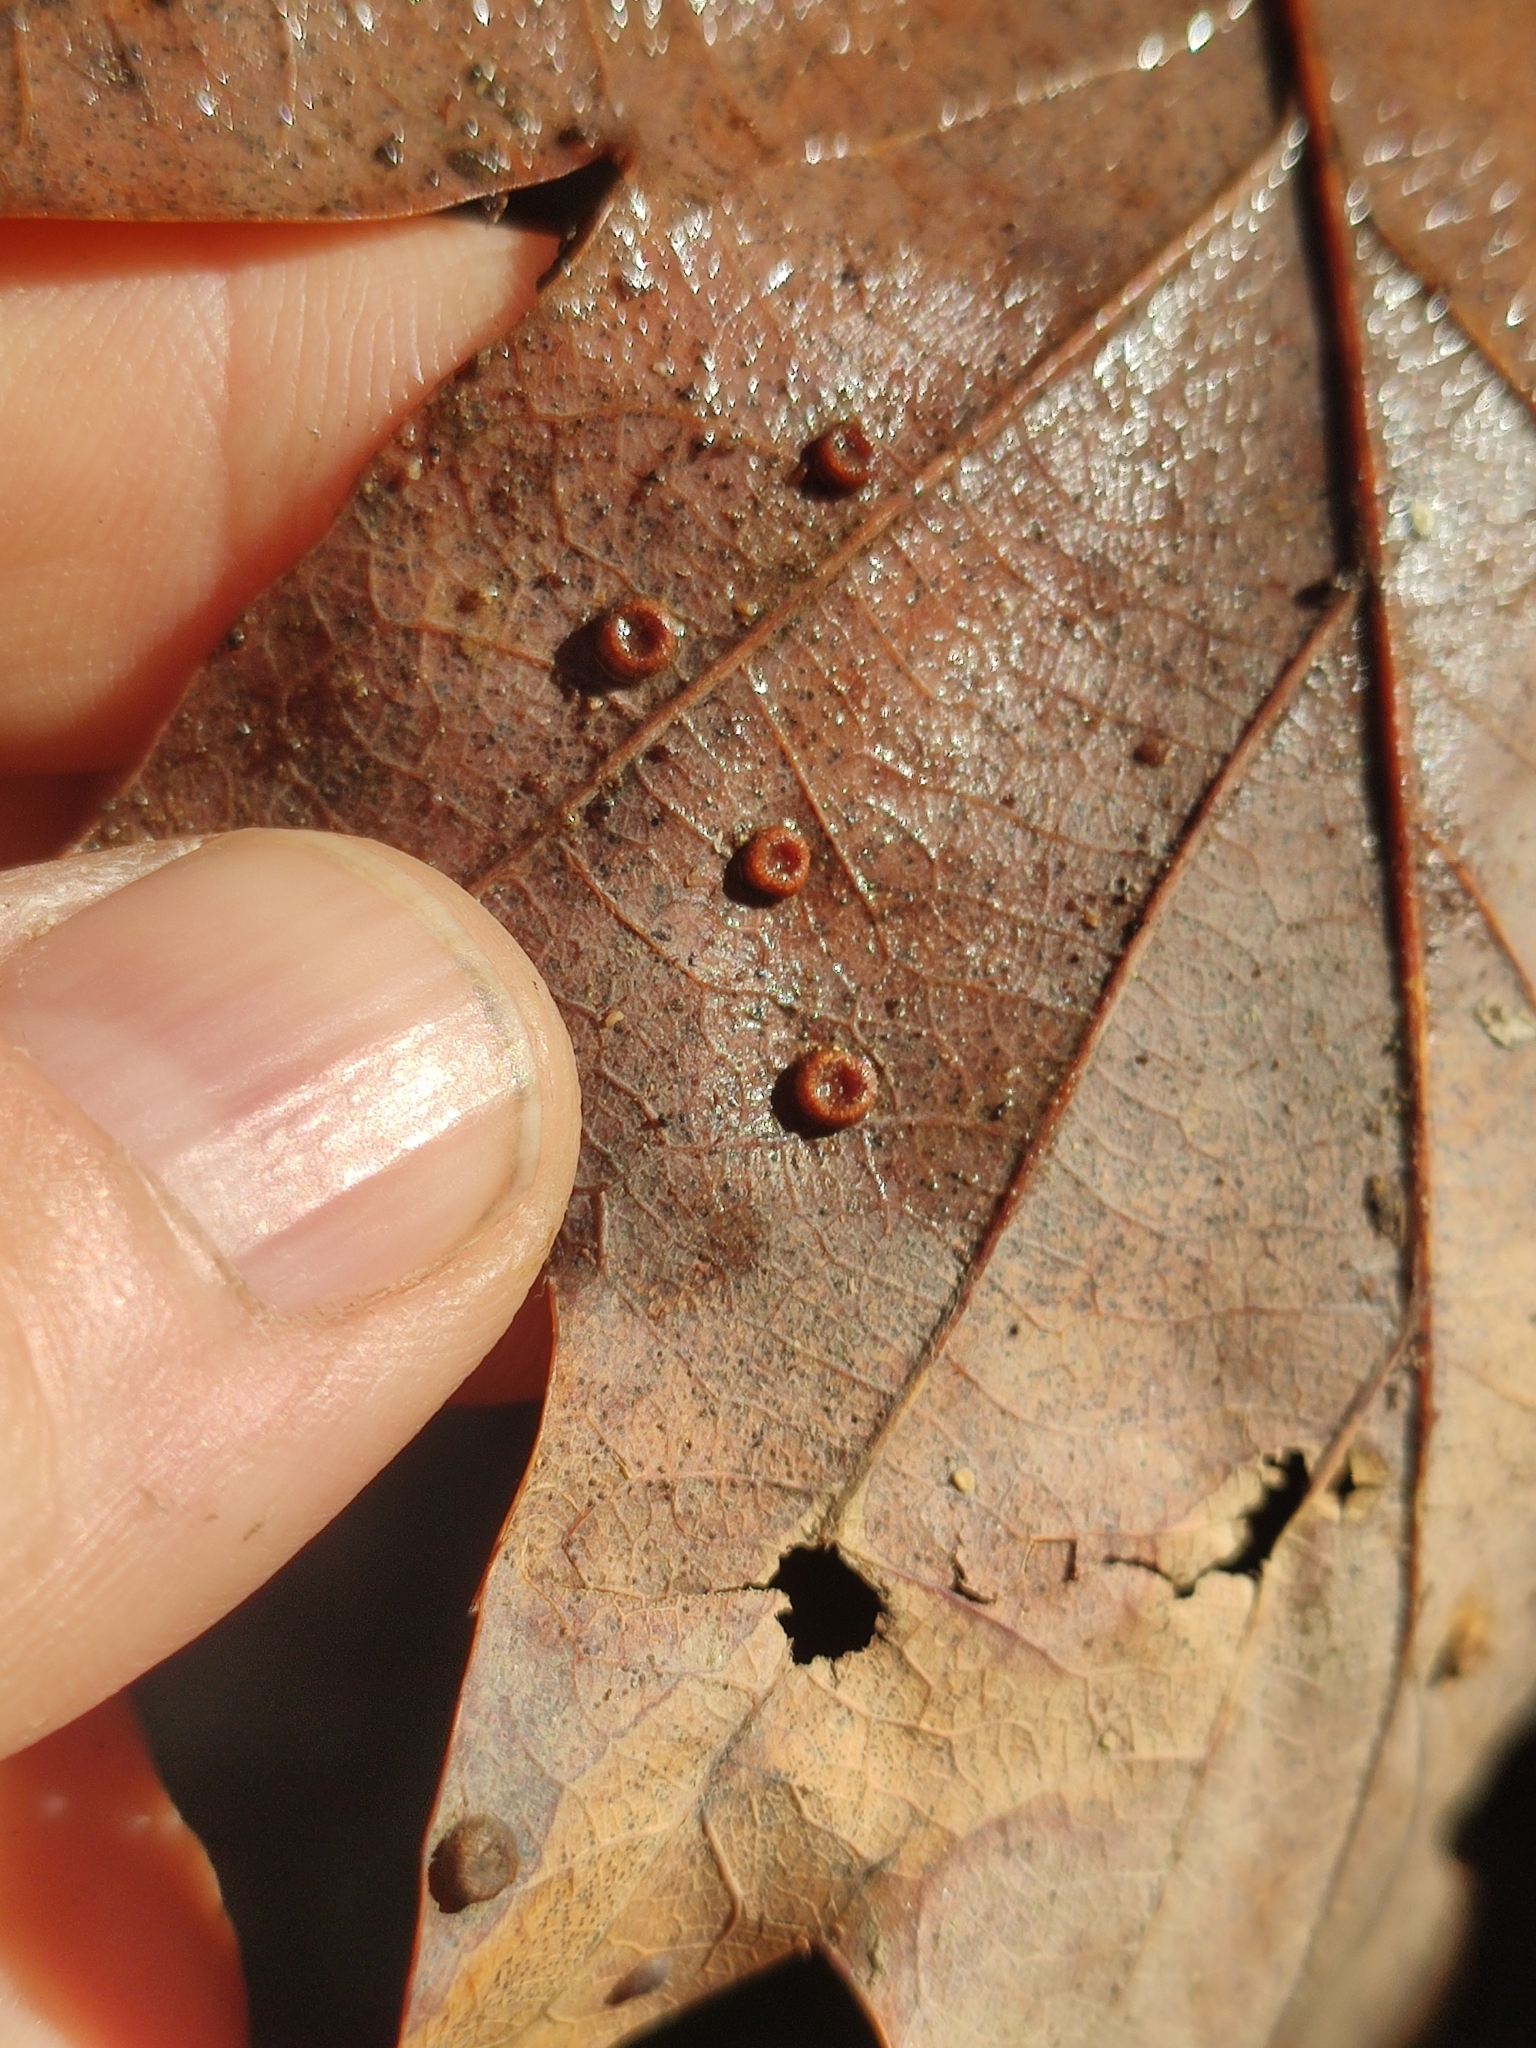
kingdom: Animalia
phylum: Arthropoda
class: Insecta
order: Hymenoptera
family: Cynipidae
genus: Neuroterus
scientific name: Neuroterus numismalis
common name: Silk-button spangle gall
